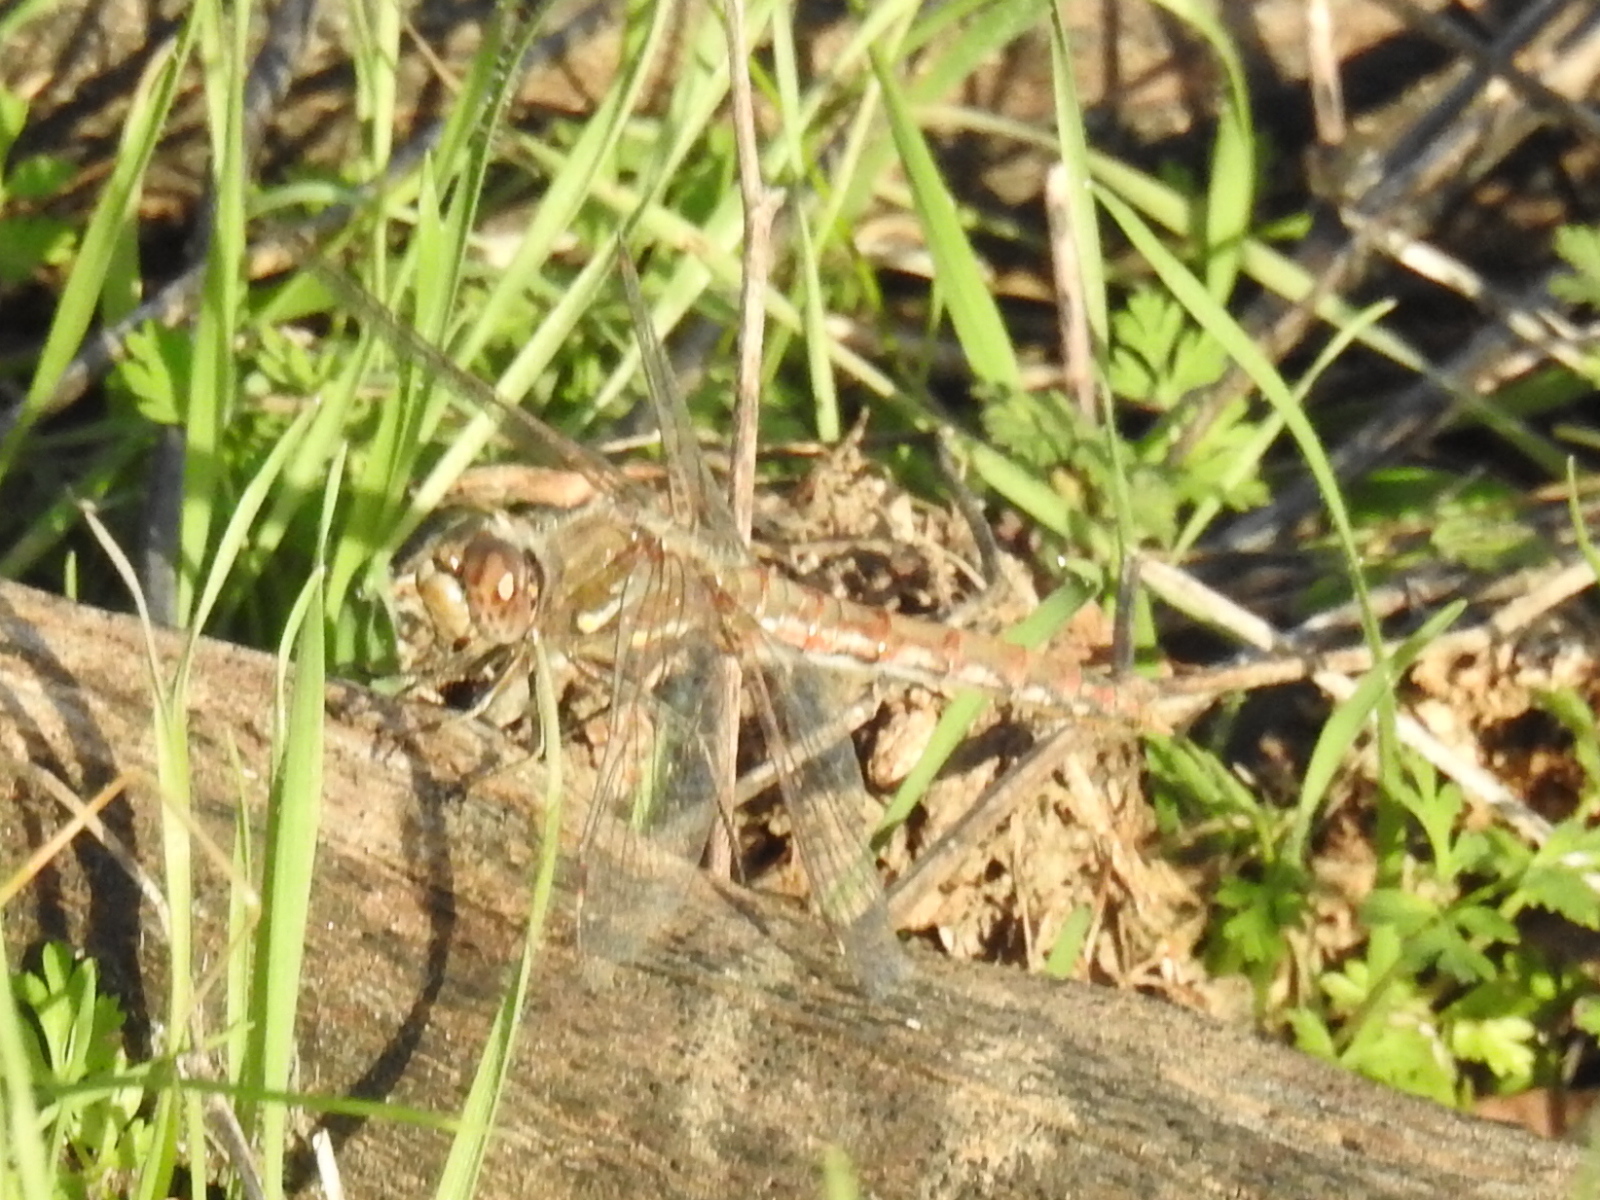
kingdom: Animalia
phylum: Arthropoda
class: Insecta
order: Odonata
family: Libellulidae
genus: Sympetrum
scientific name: Sympetrum corruptum
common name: Variegated meadowhawk
